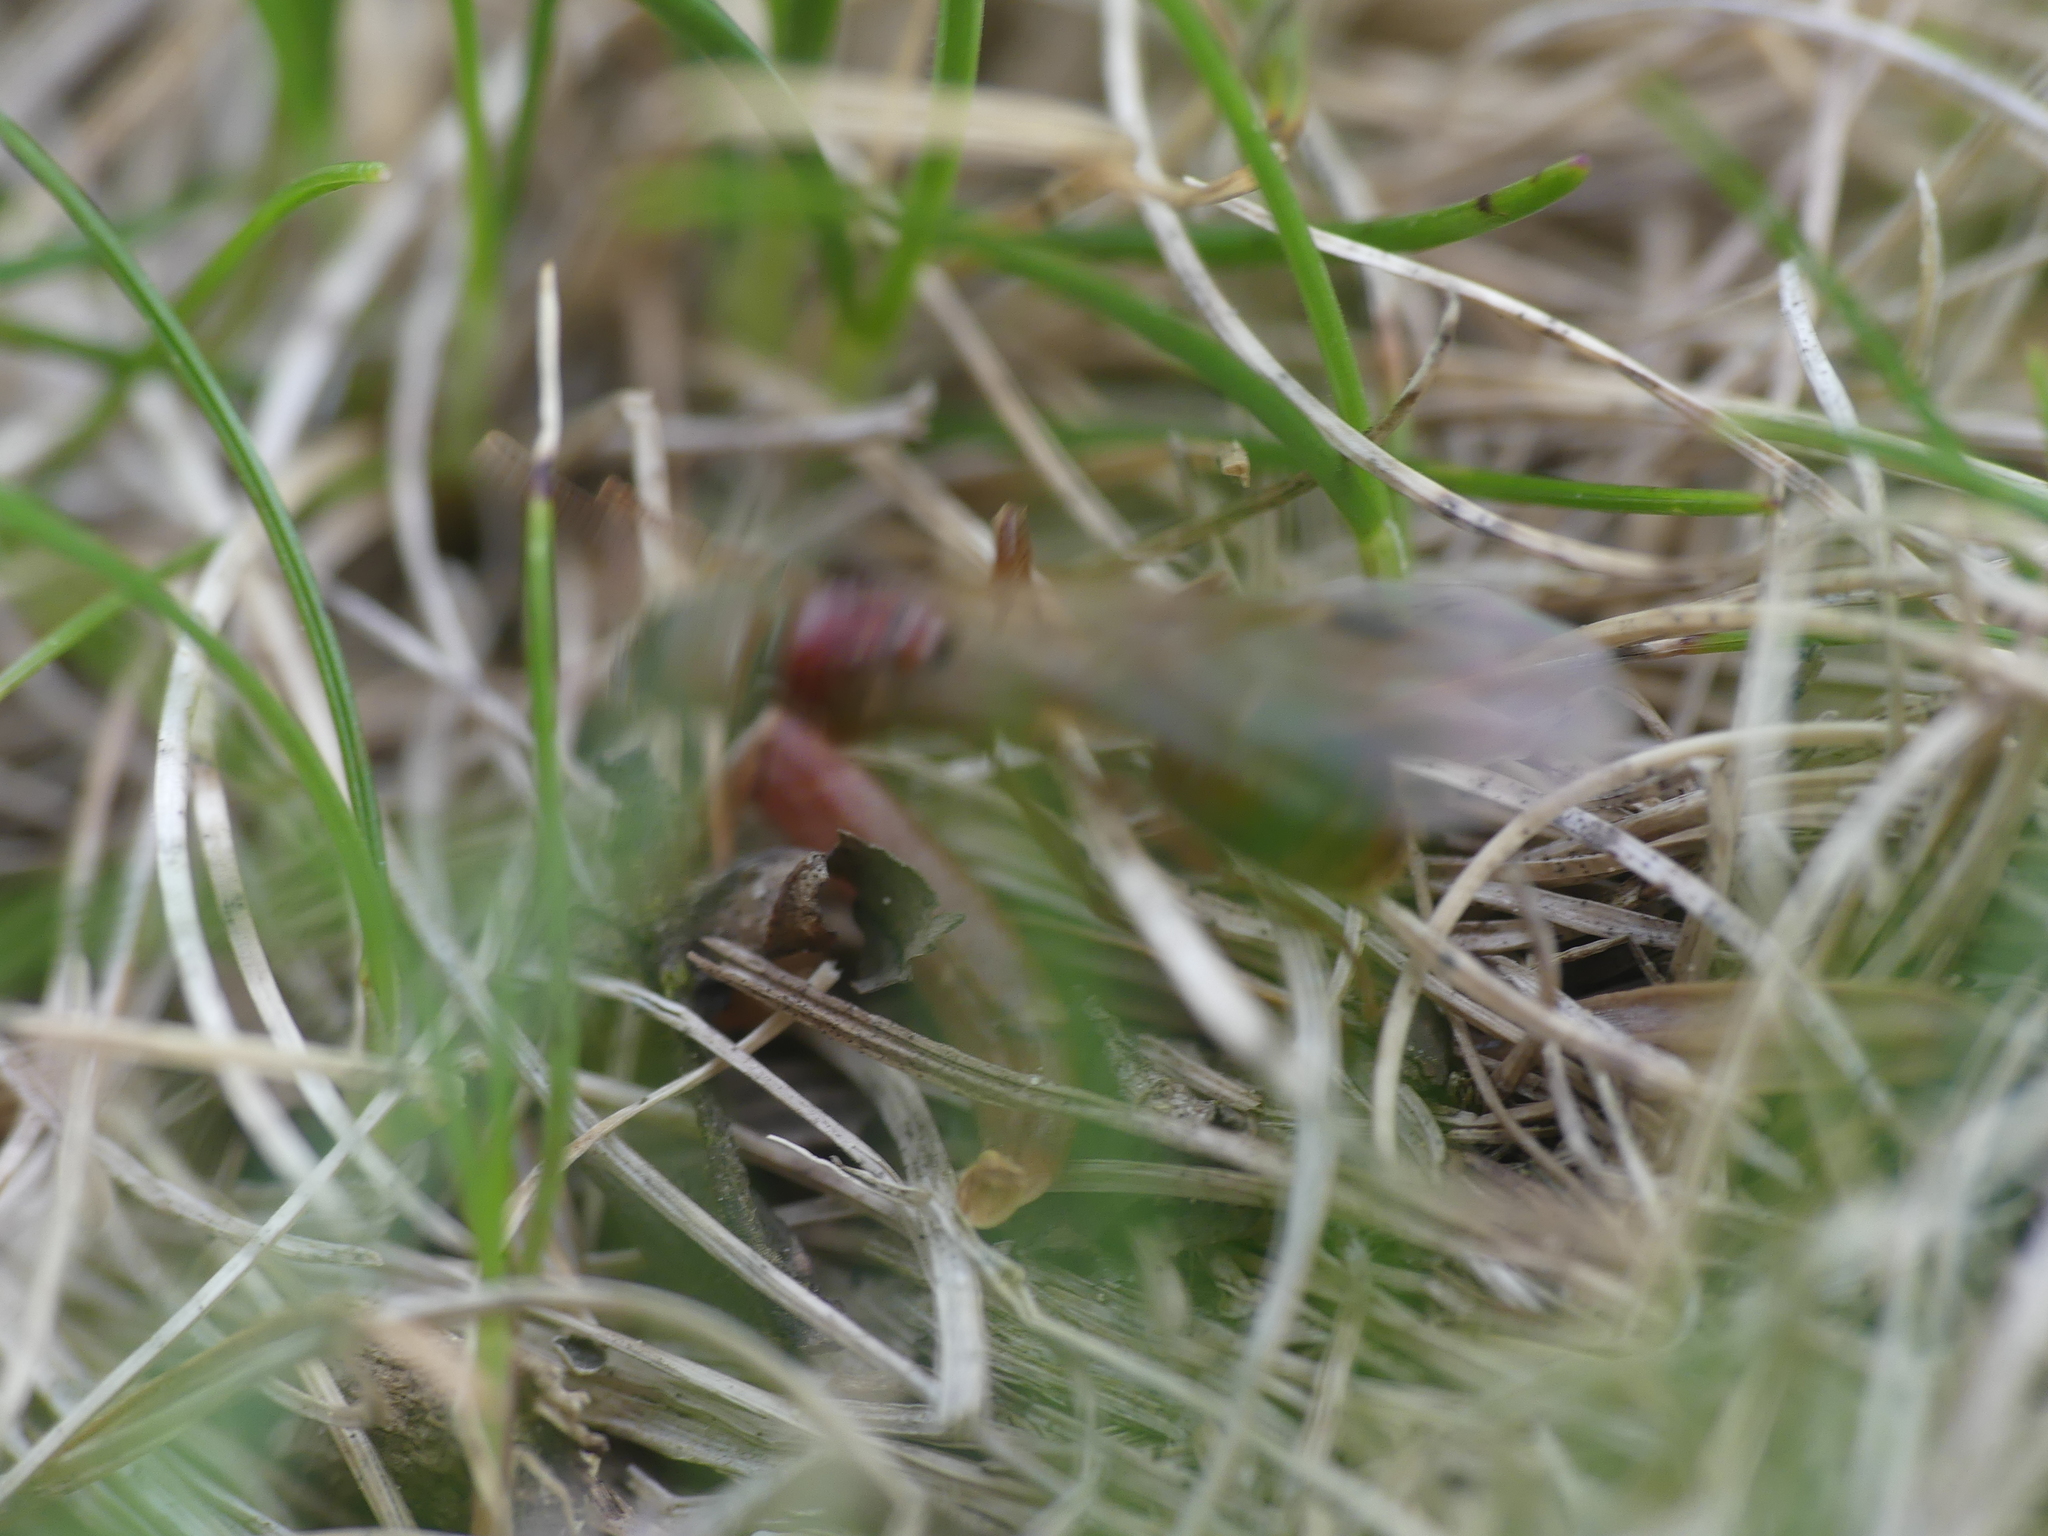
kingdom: Animalia
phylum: Arthropoda
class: Insecta
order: Hymenoptera
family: Formicidae
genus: Manica
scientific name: Manica rubida
